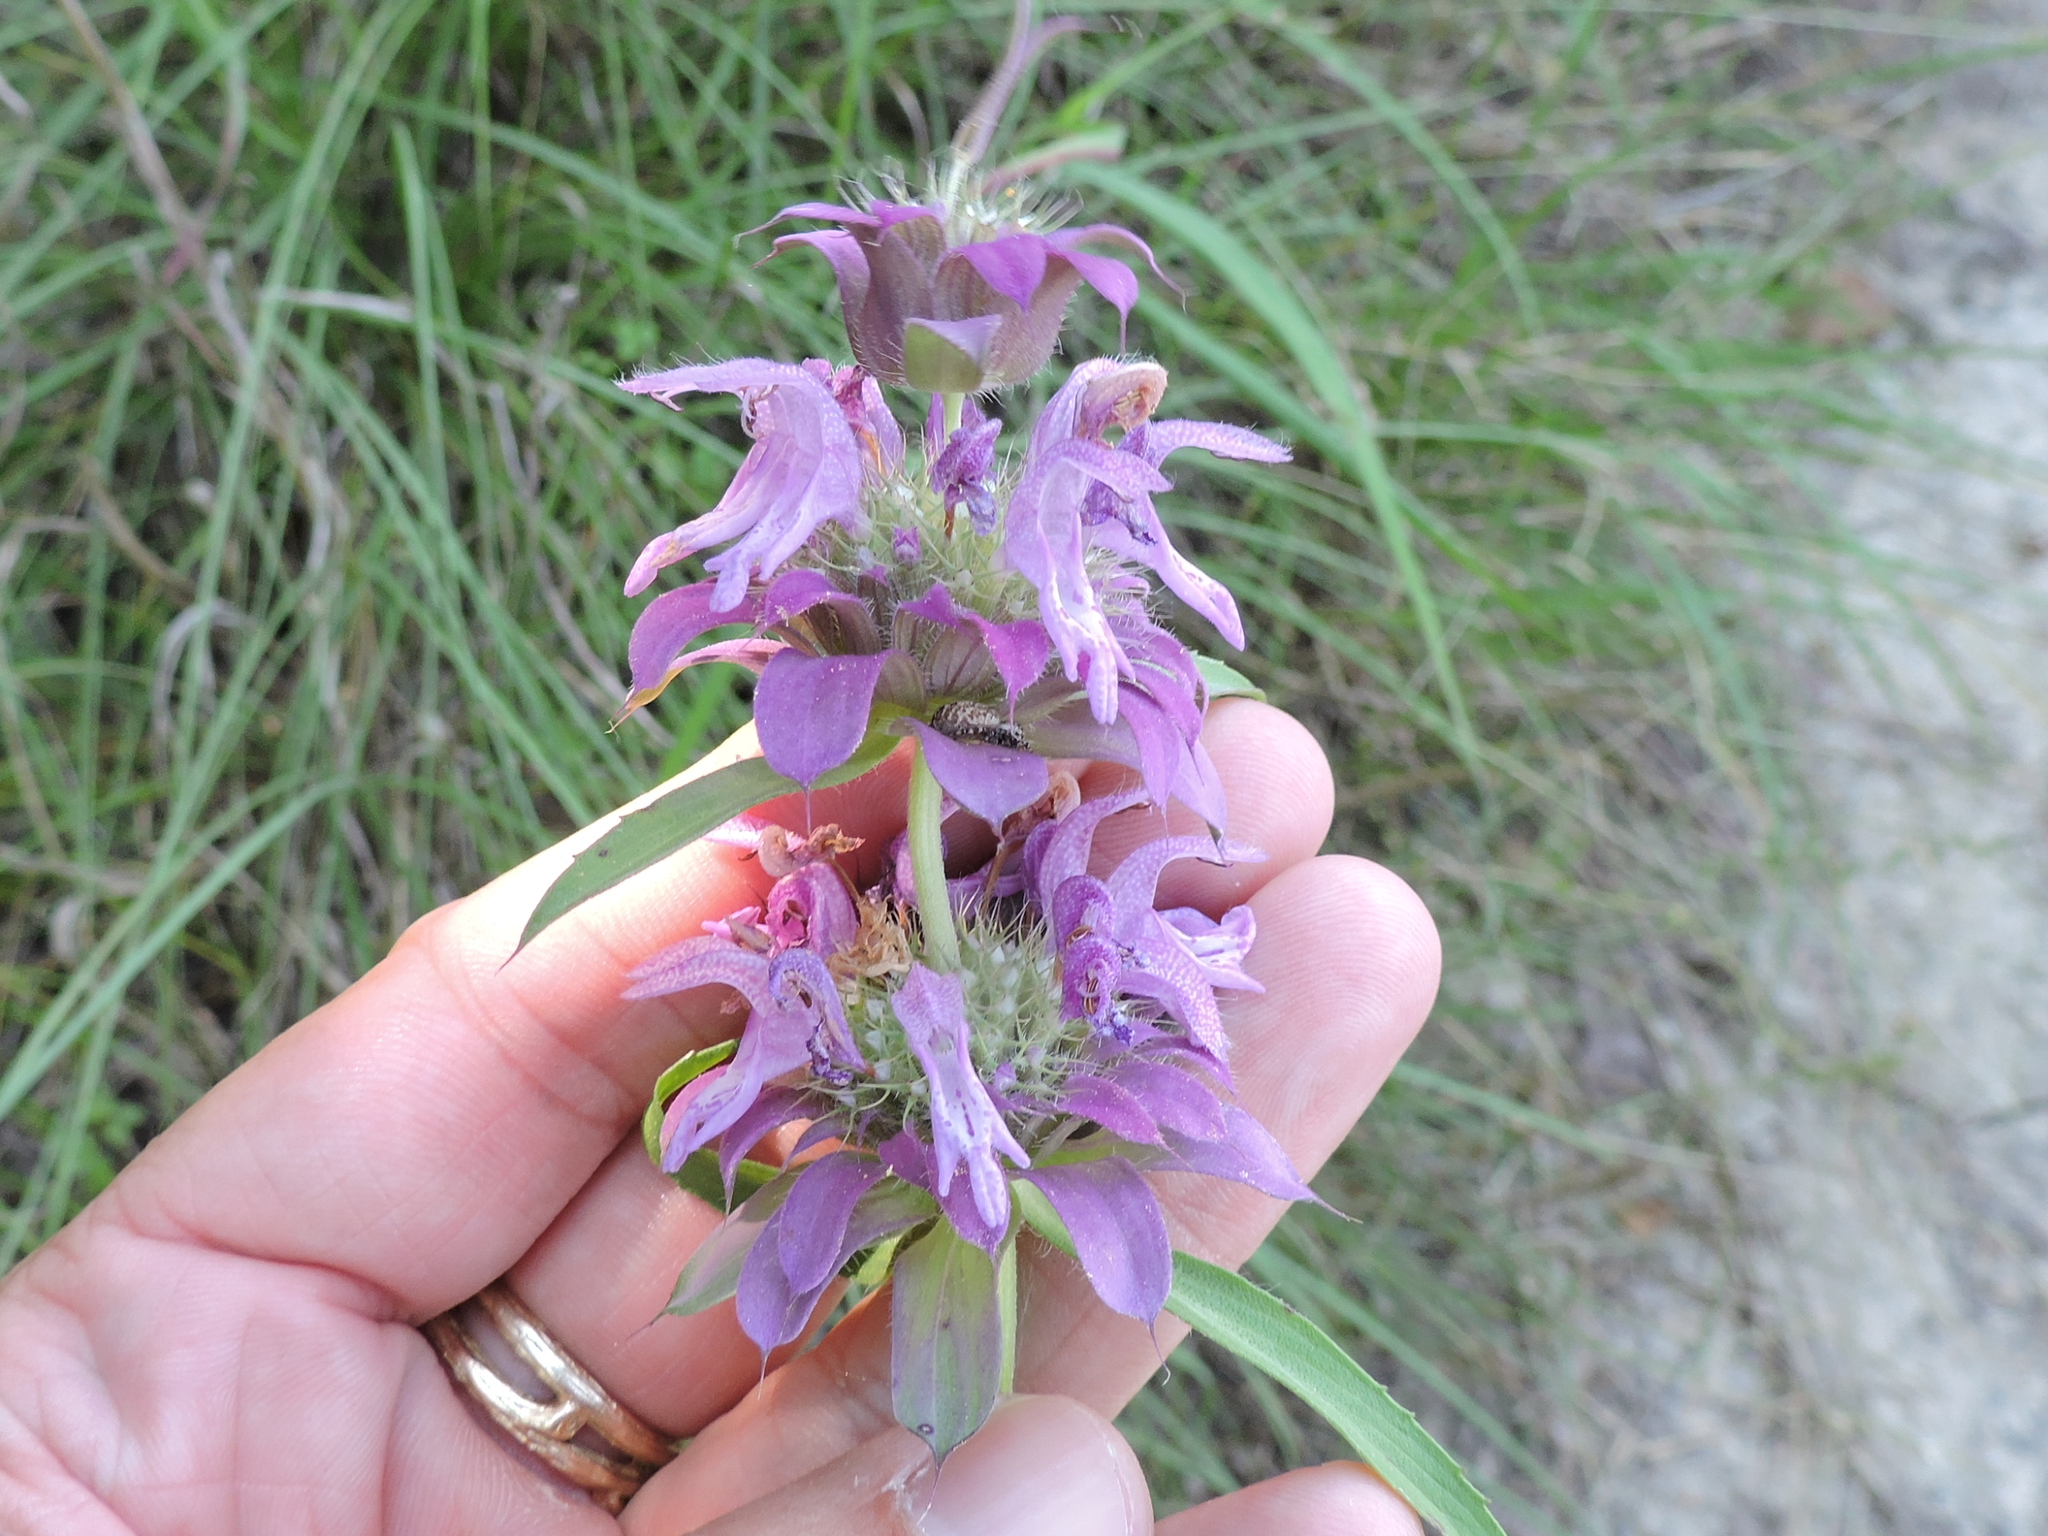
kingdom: Plantae
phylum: Tracheophyta
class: Magnoliopsida
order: Lamiales
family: Lamiaceae
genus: Monarda
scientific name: Monarda citriodora
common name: Lemon beebalm
